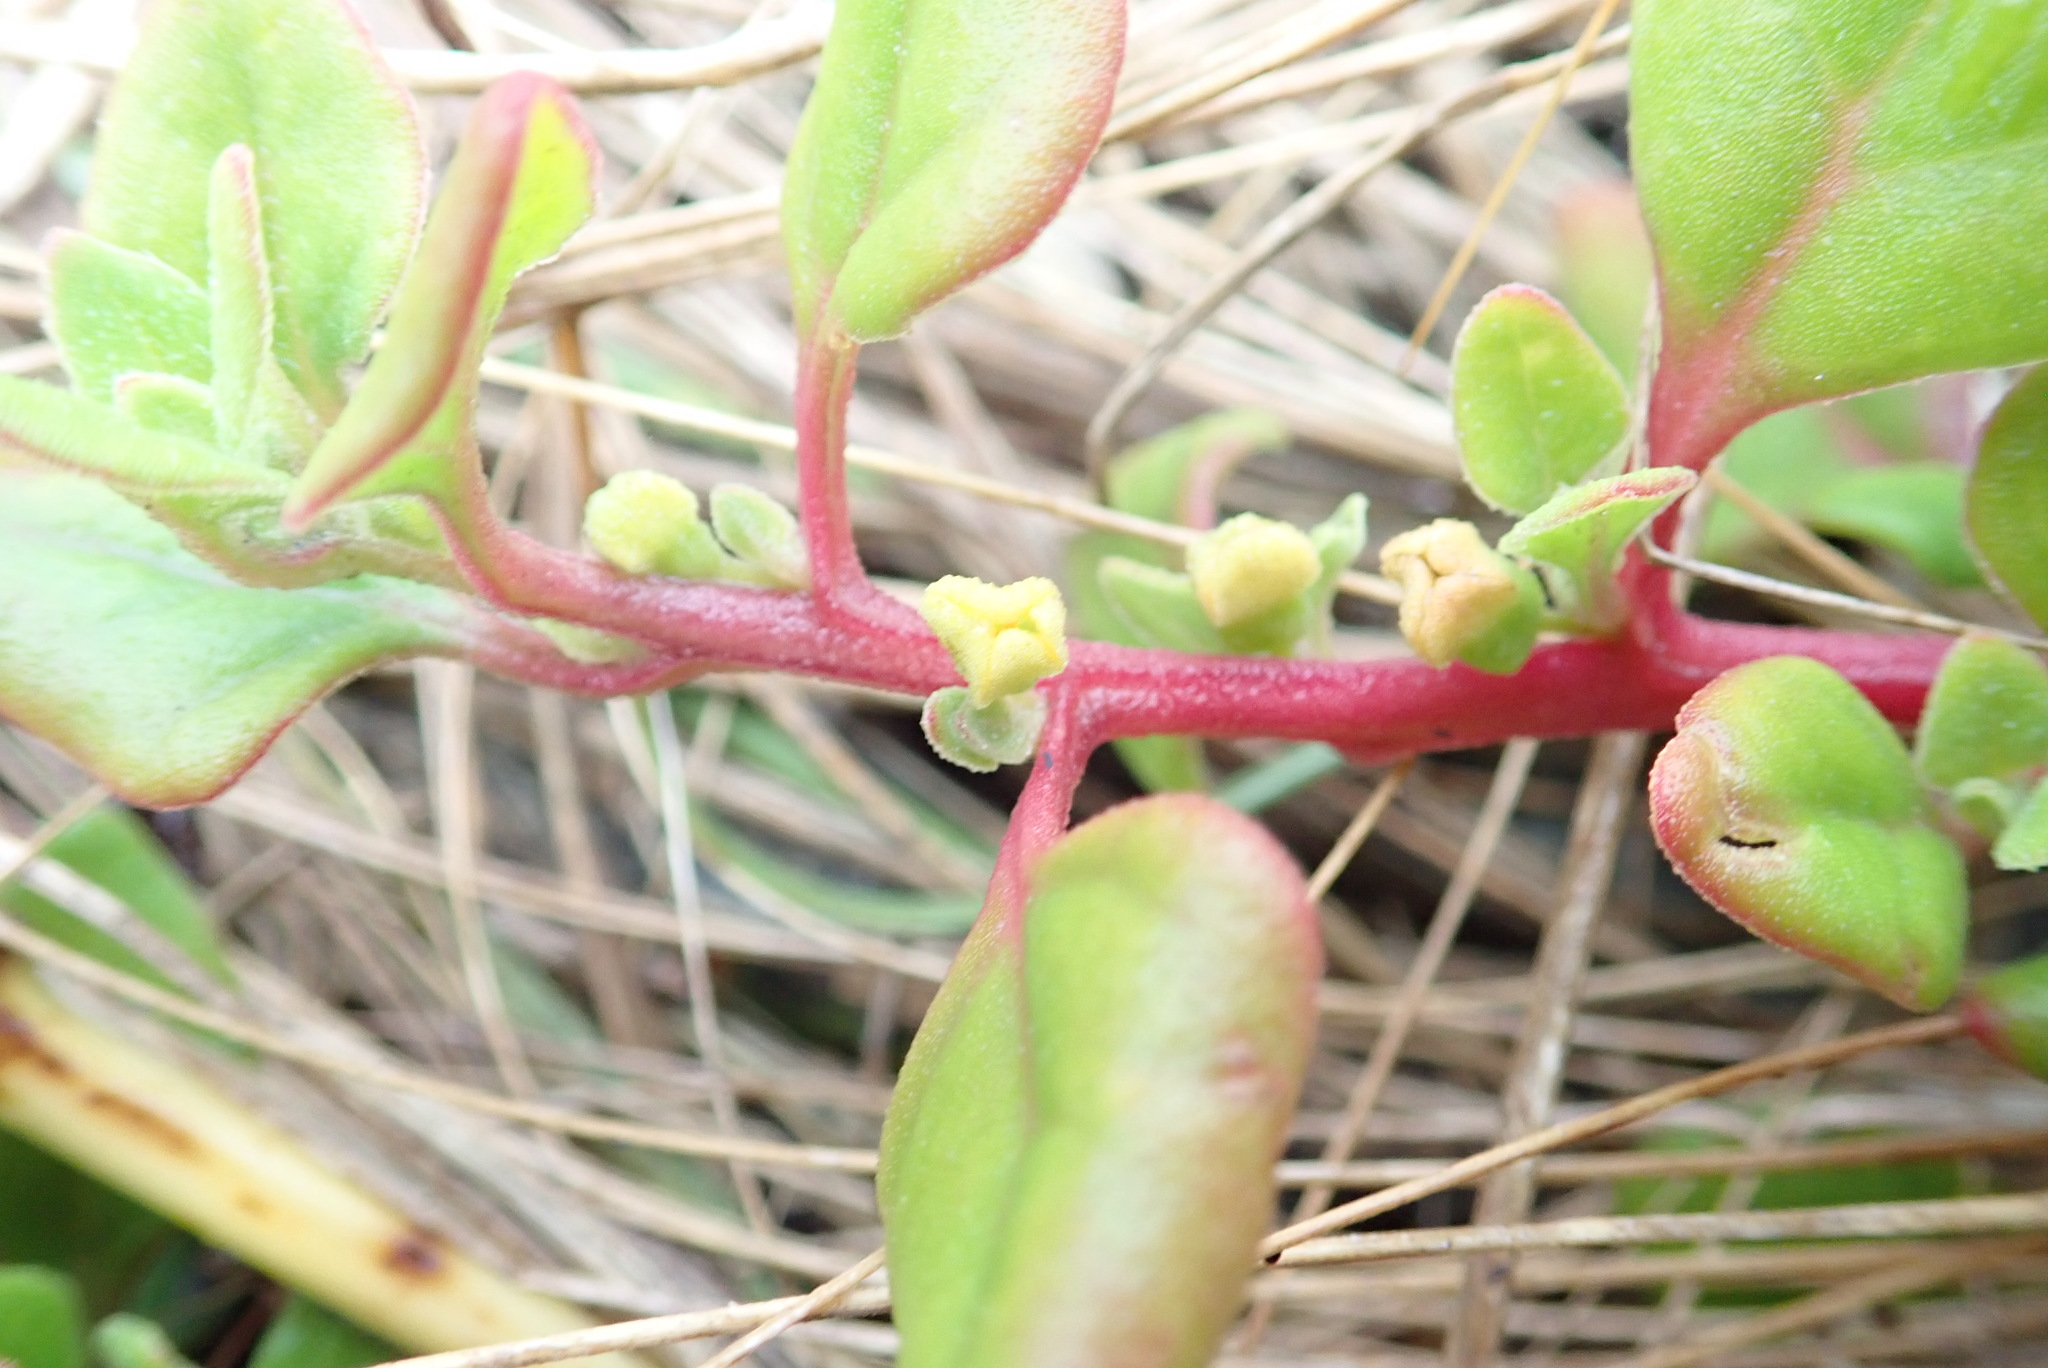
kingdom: Plantae
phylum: Tracheophyta
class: Magnoliopsida
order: Caryophyllales
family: Aizoaceae
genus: Tetragonia
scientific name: Tetragonia implexicoma
